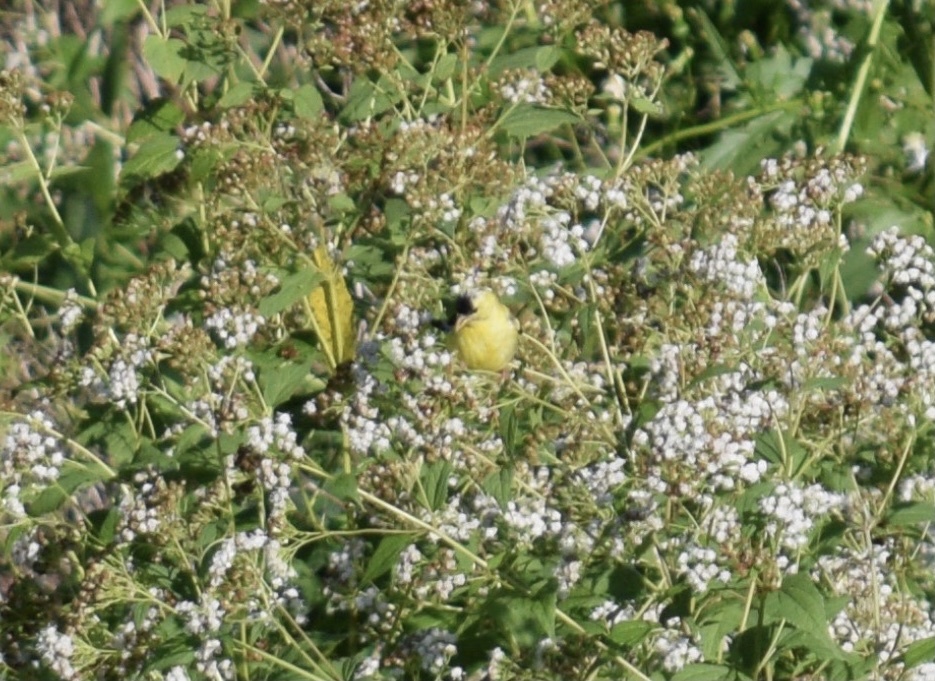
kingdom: Animalia
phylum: Chordata
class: Aves
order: Passeriformes
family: Fringillidae
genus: Spinus
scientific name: Spinus tristis
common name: American goldfinch
